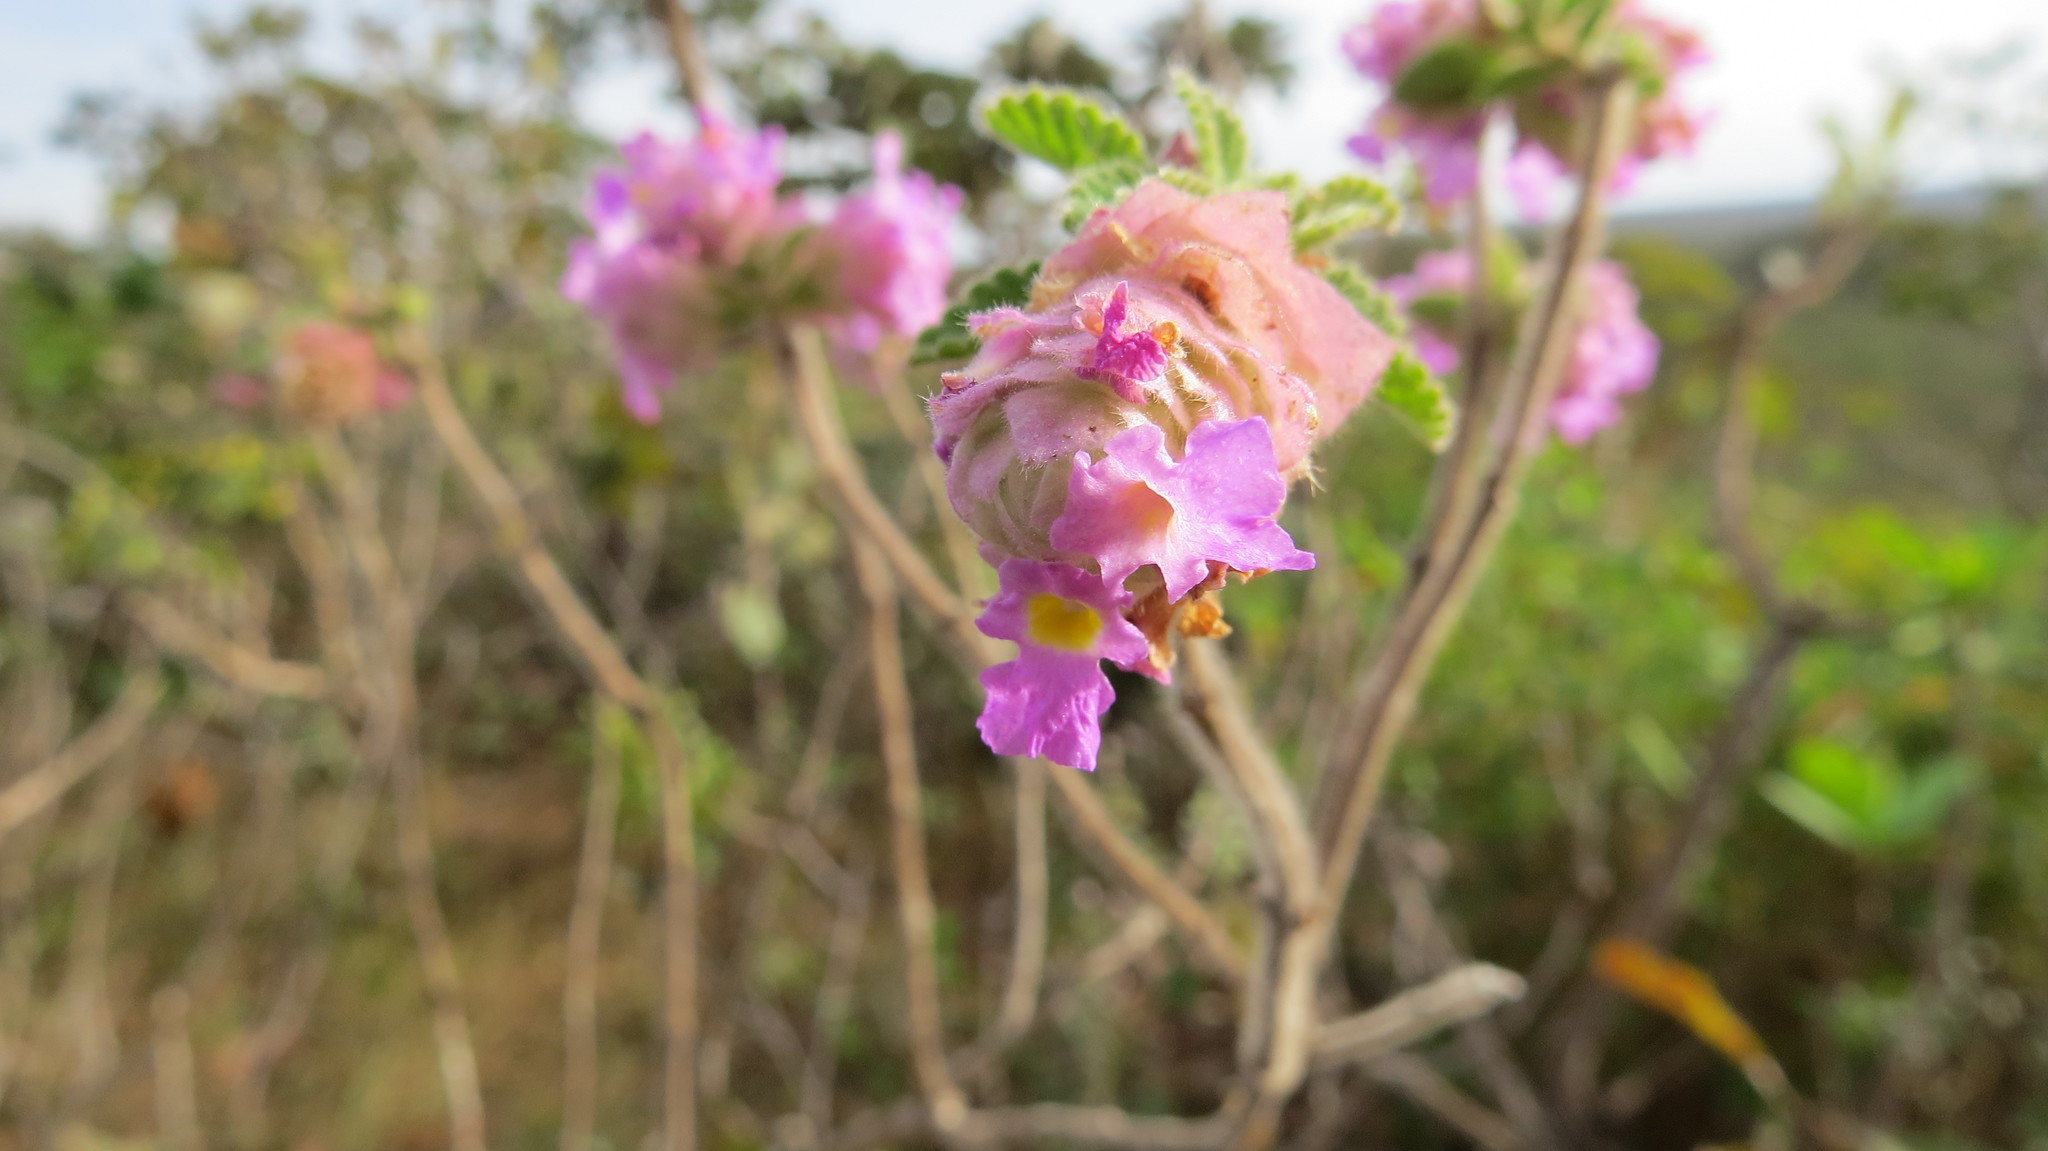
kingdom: Plantae
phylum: Tracheophyta
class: Magnoliopsida
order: Lamiales
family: Verbenaceae
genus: Lippia
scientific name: Lippia lupulina
